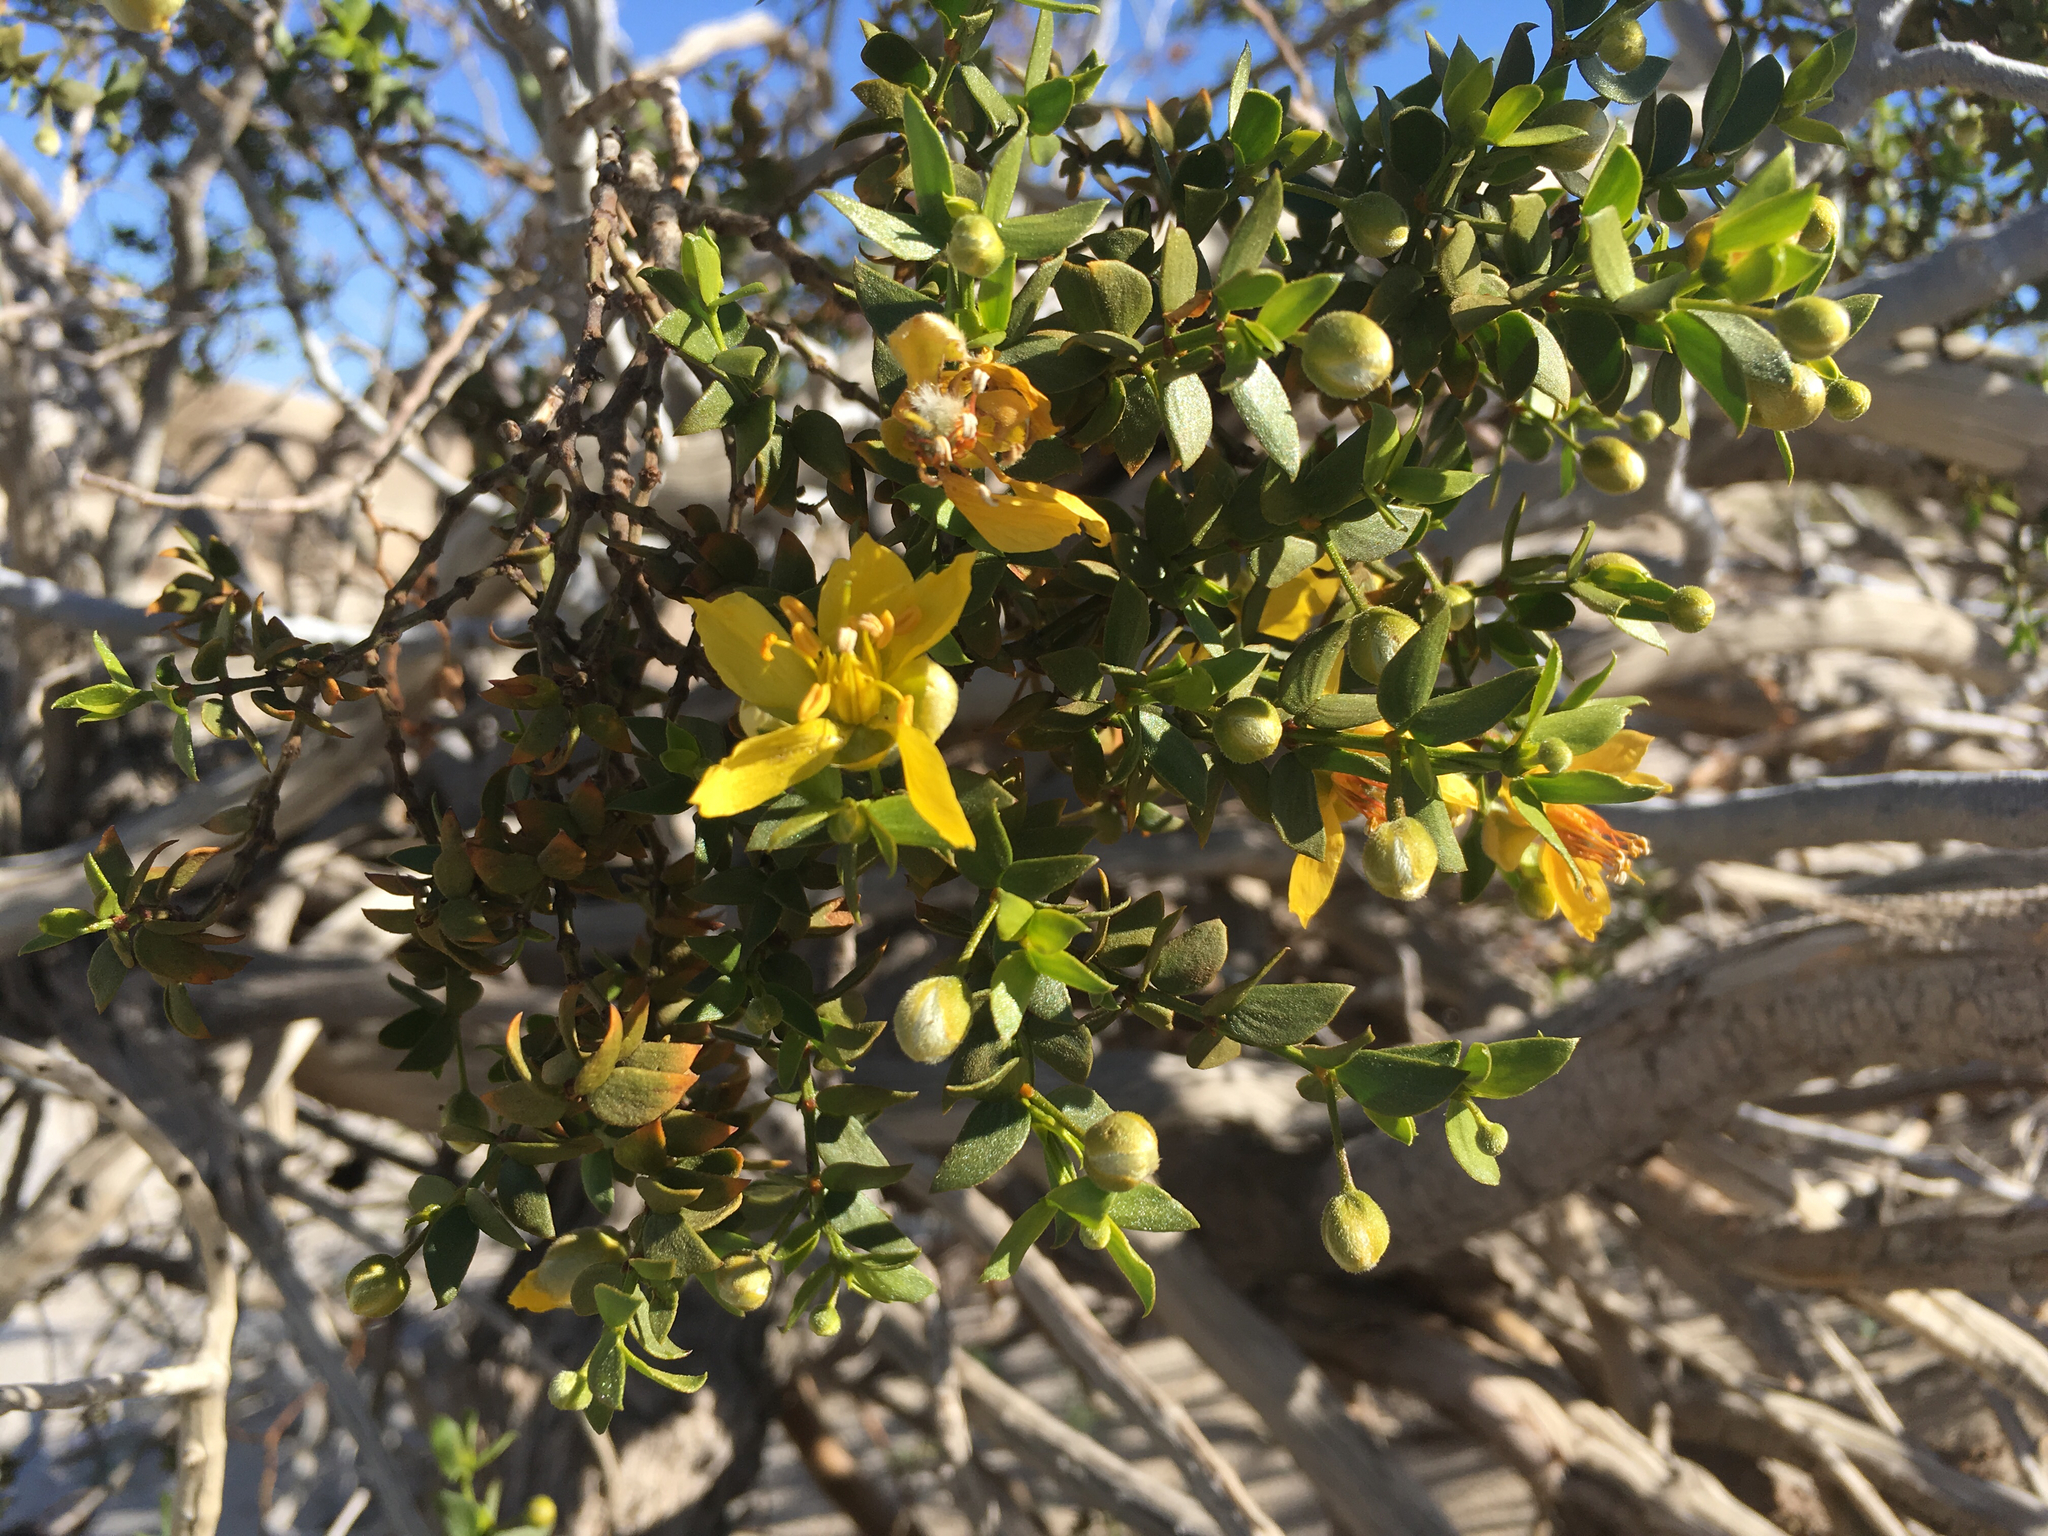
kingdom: Plantae
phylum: Tracheophyta
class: Magnoliopsida
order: Zygophyllales
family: Zygophyllaceae
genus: Larrea
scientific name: Larrea tridentata
